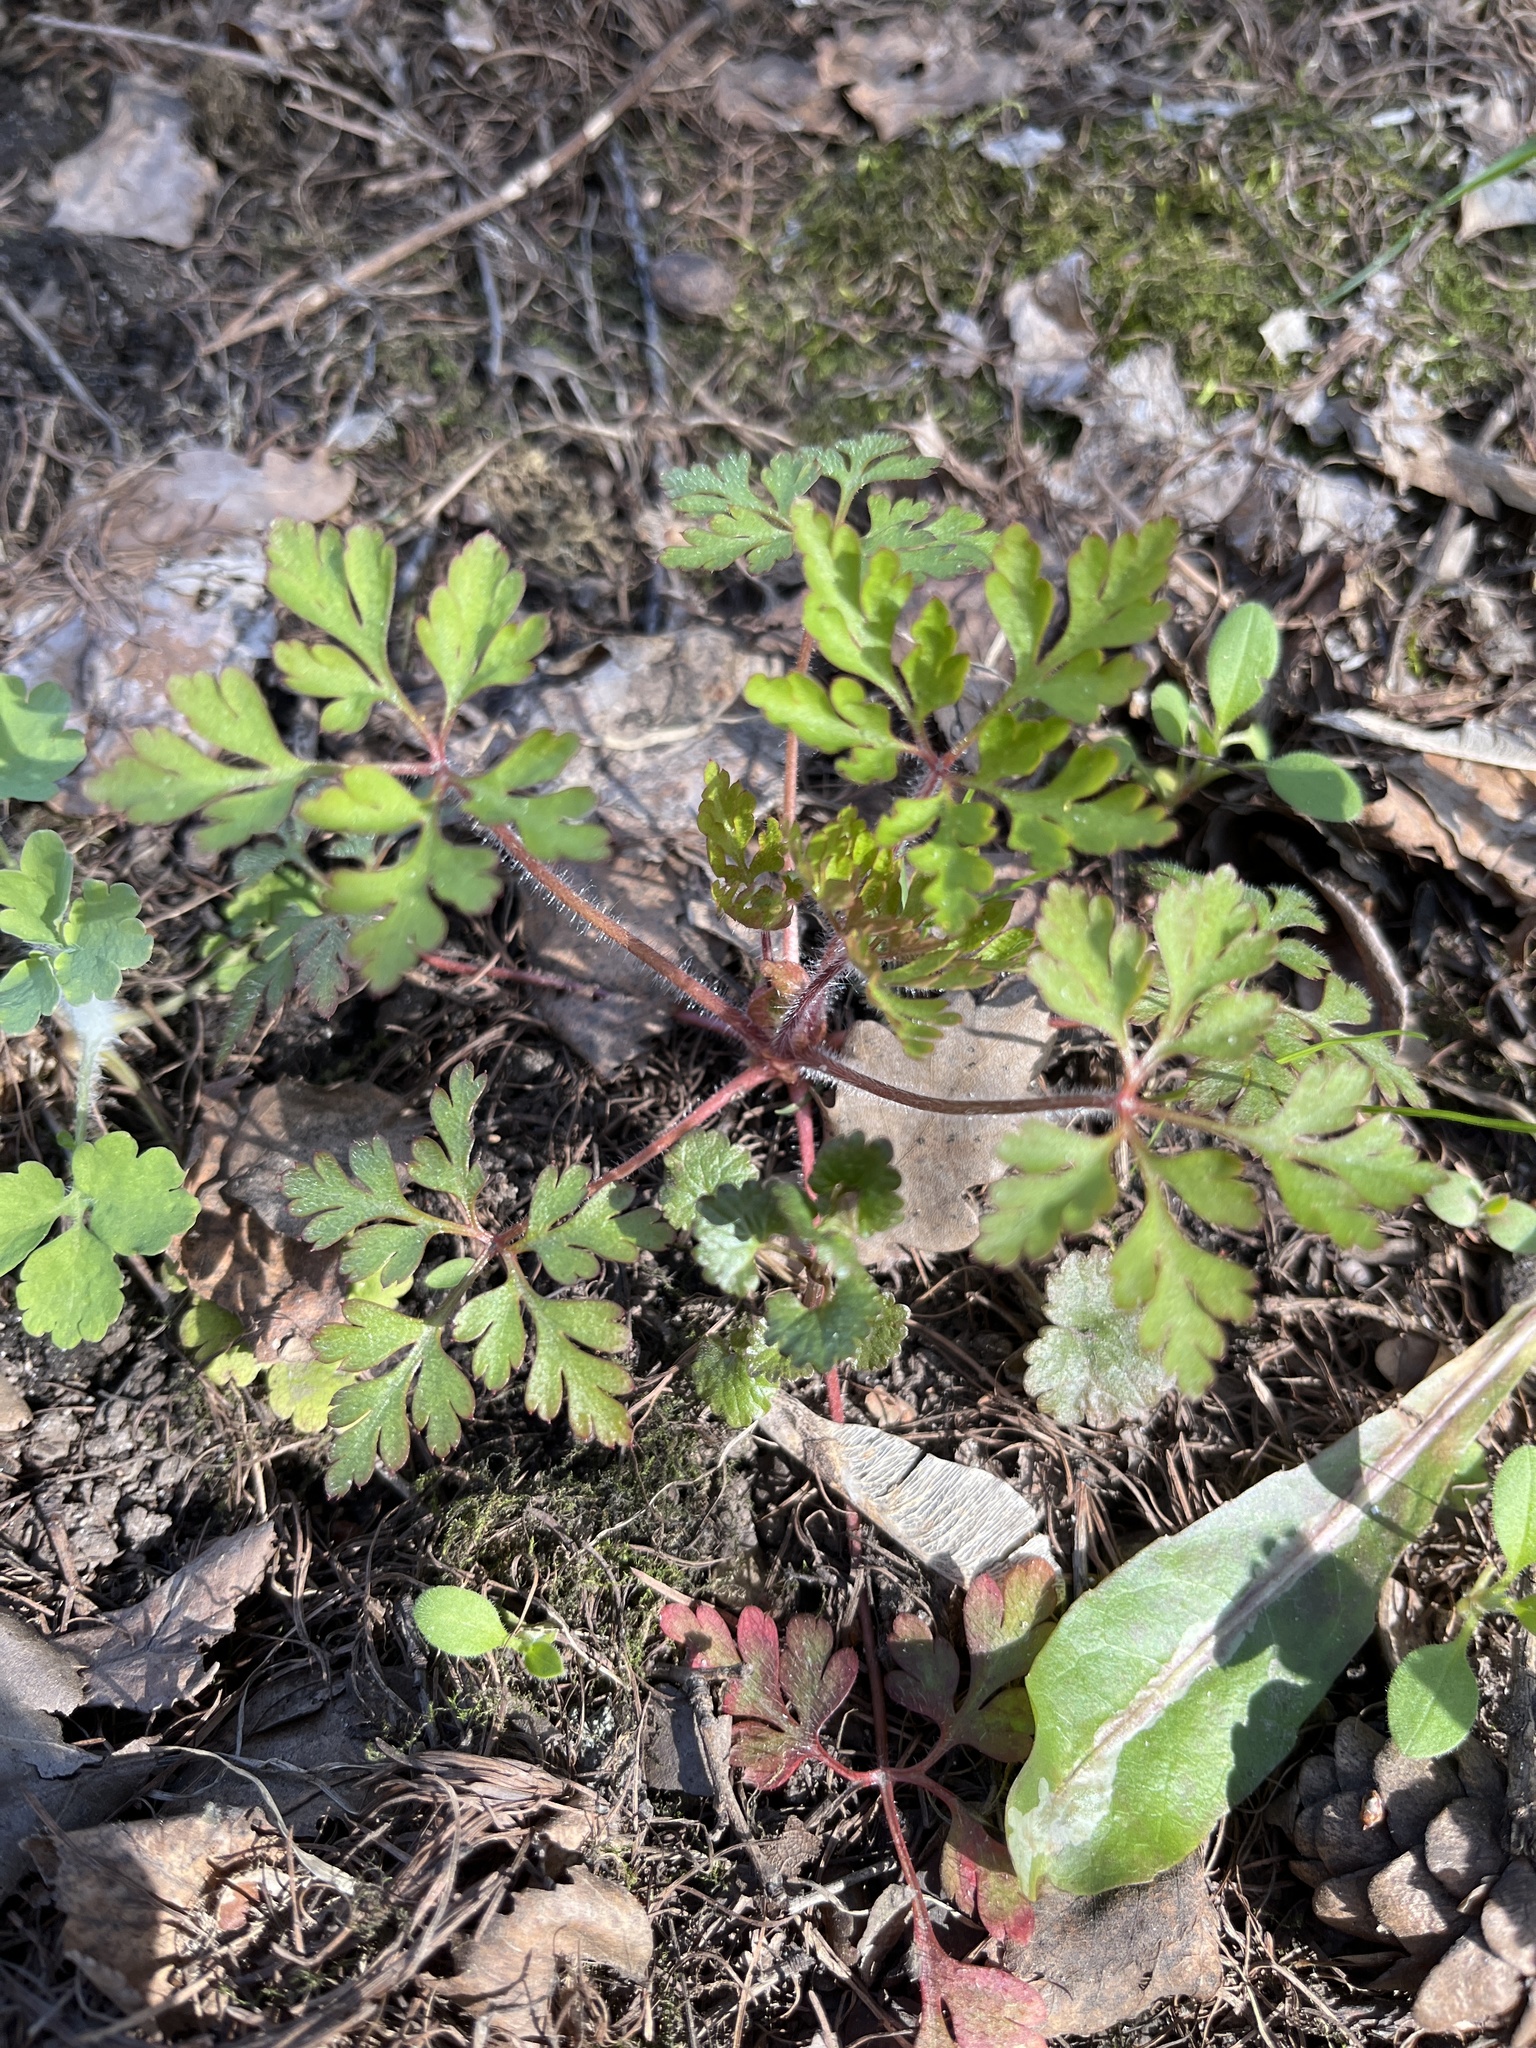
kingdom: Plantae
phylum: Tracheophyta
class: Magnoliopsida
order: Geraniales
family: Geraniaceae
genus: Geranium
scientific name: Geranium robertianum
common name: Herb-robert
